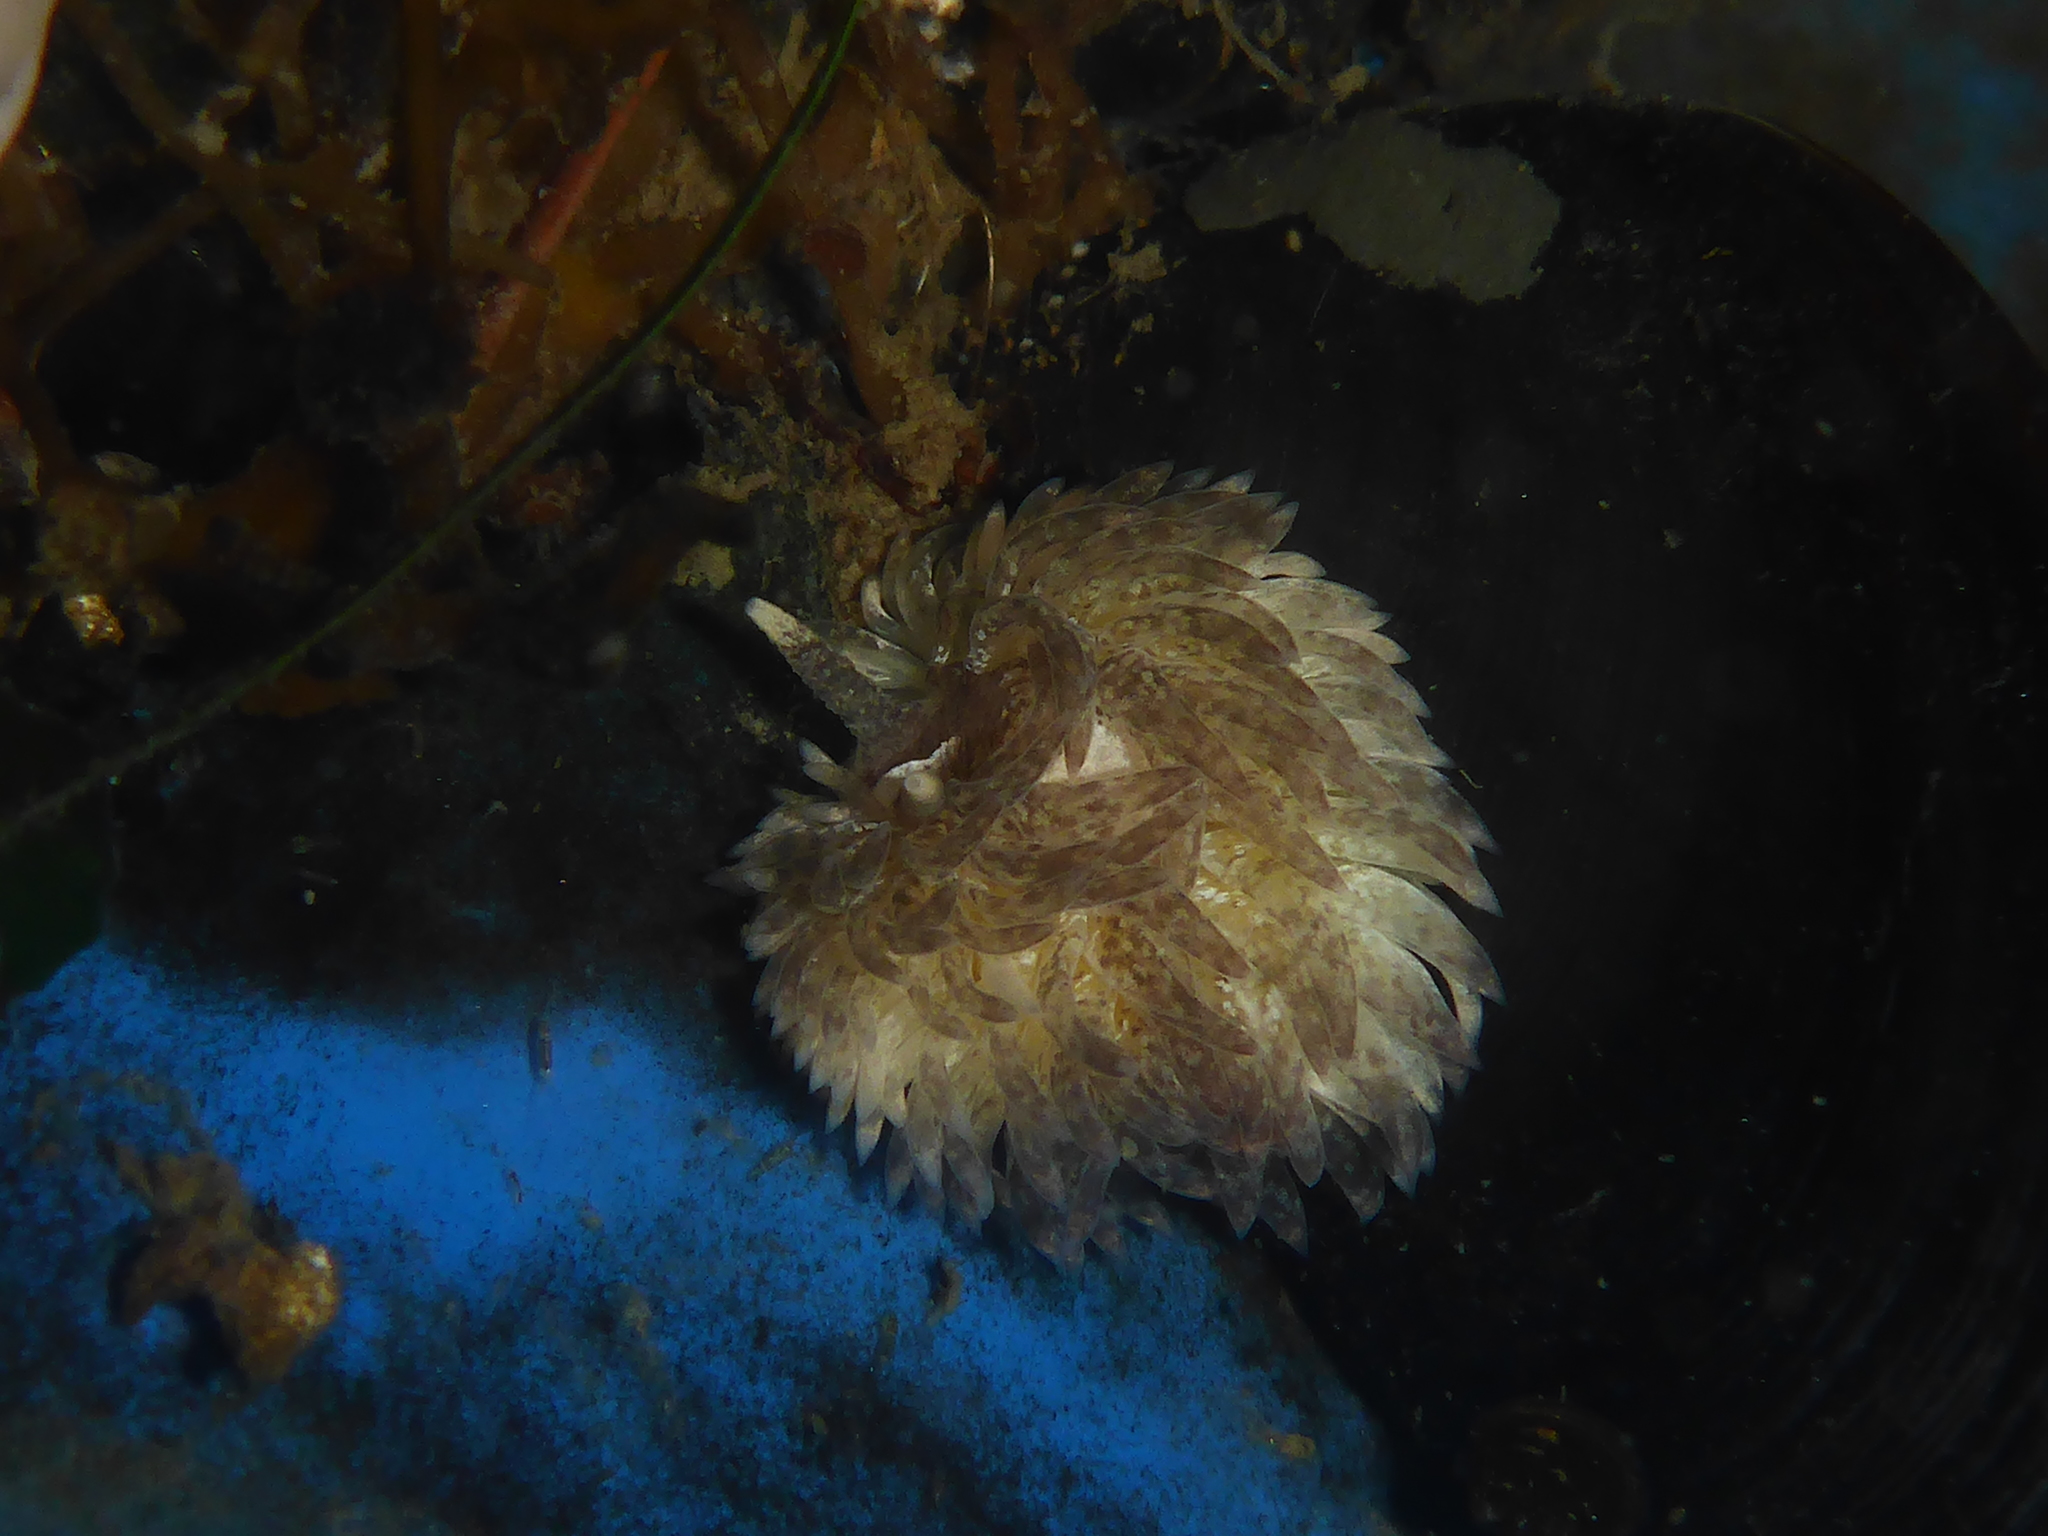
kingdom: Animalia
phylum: Mollusca
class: Gastropoda
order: Nudibranchia
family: Aeolidiidae
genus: Aeolidia
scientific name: Aeolidia loui
